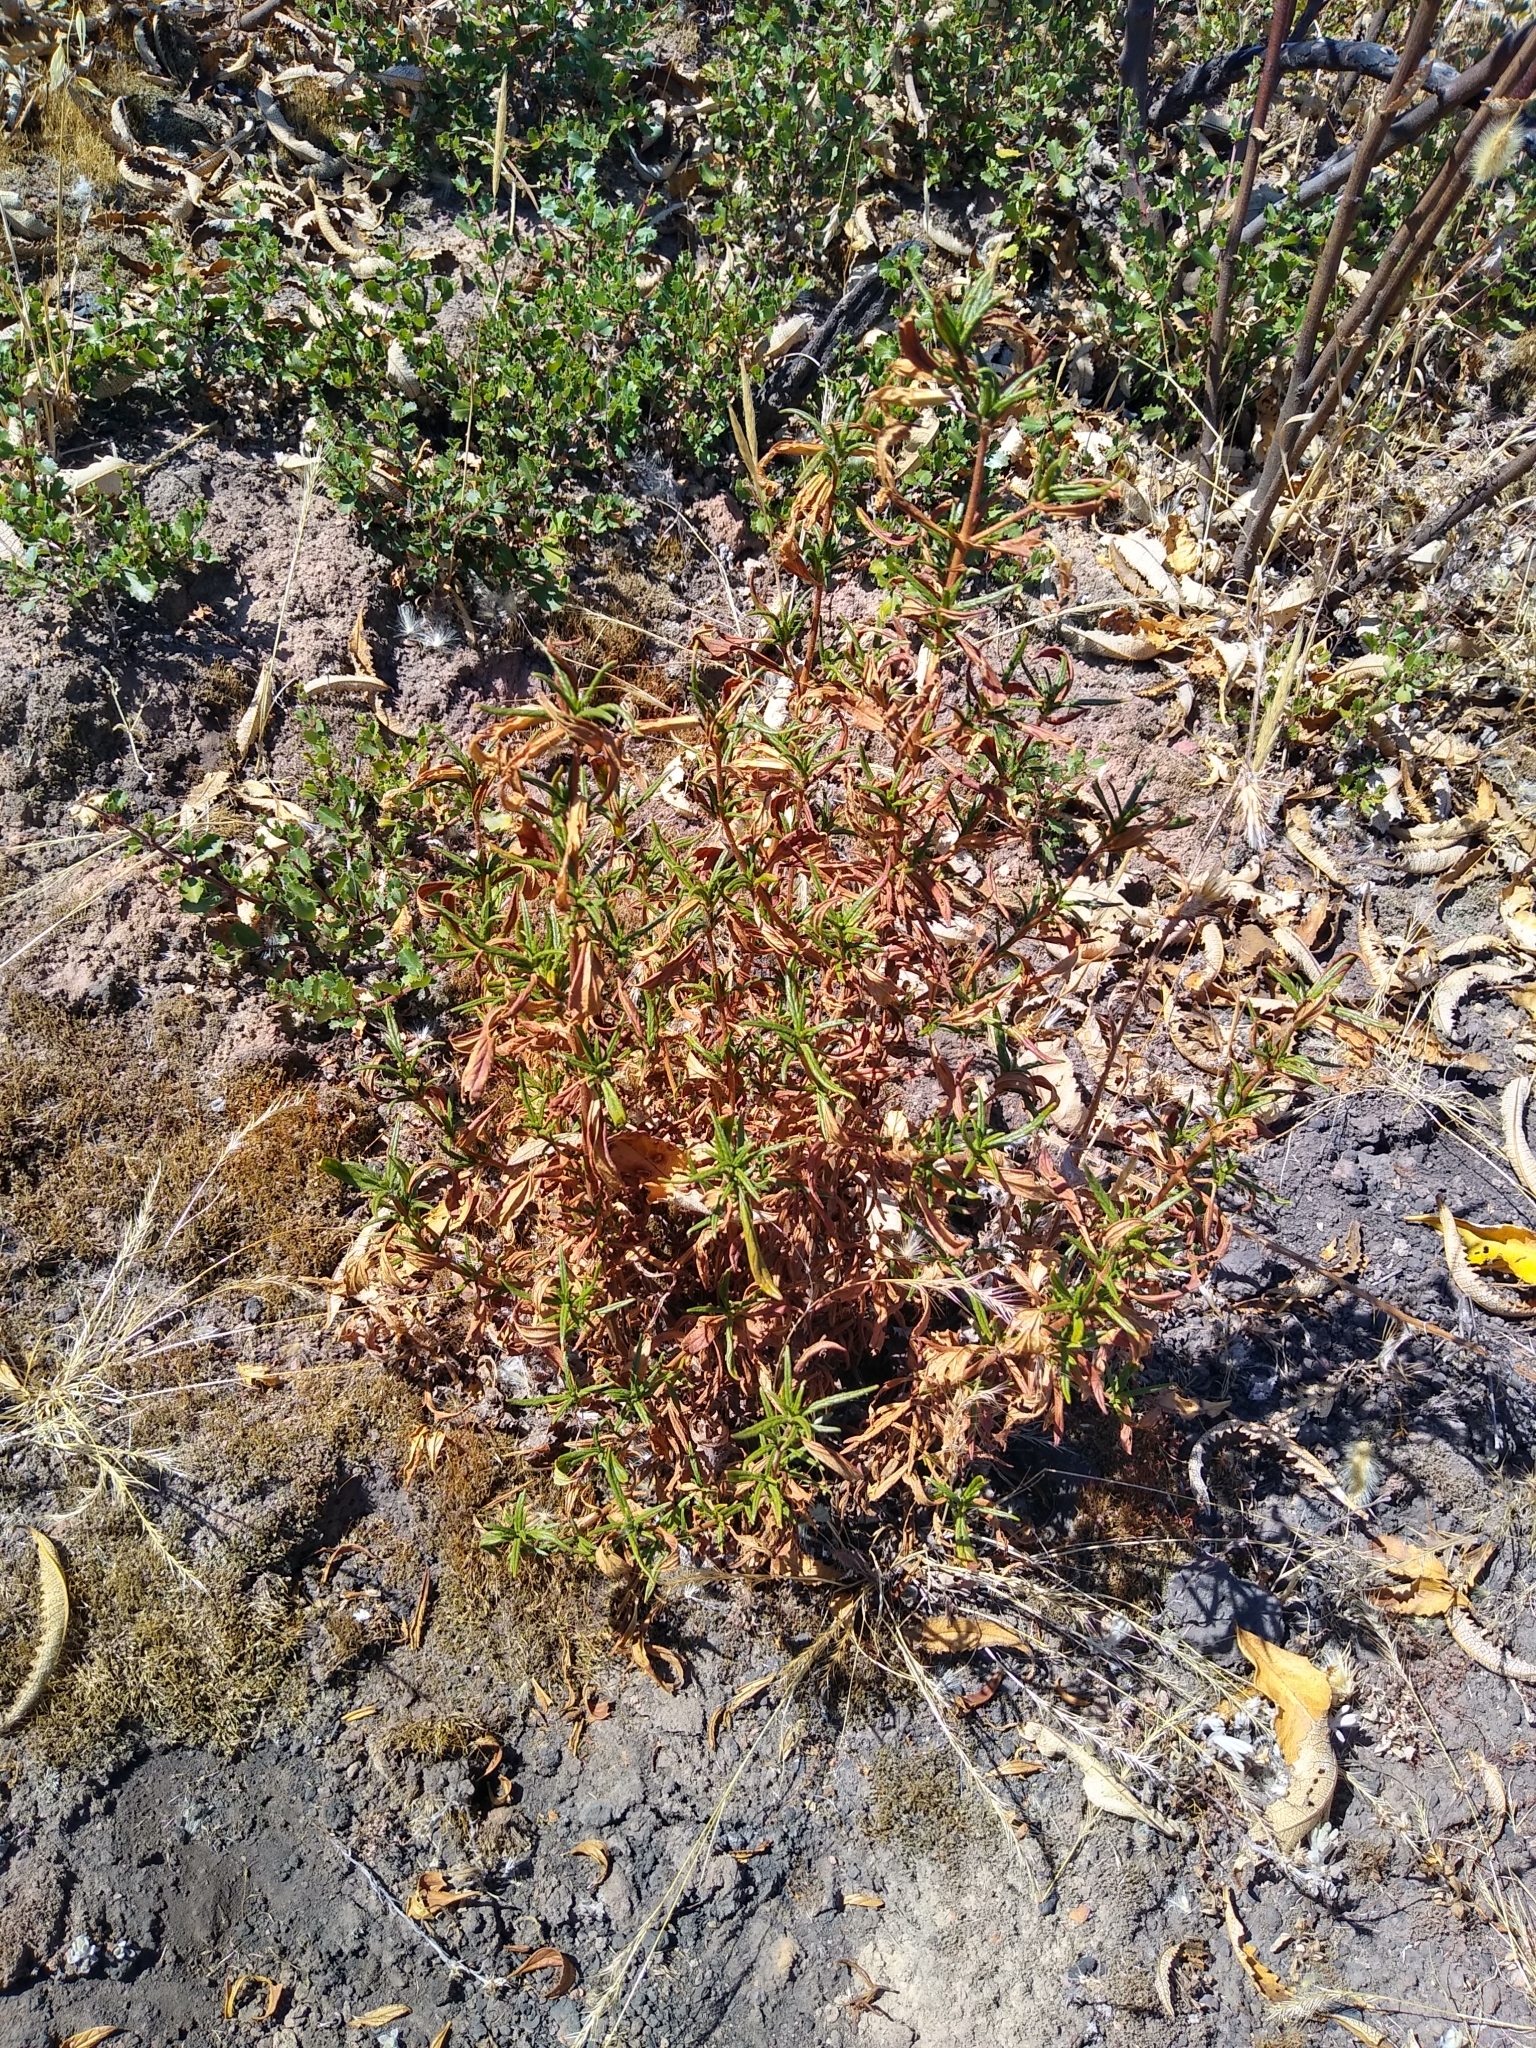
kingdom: Plantae
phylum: Tracheophyta
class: Magnoliopsida
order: Lamiales
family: Phrymaceae
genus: Diplacus
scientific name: Diplacus aurantiacus
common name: Bush monkey-flower
